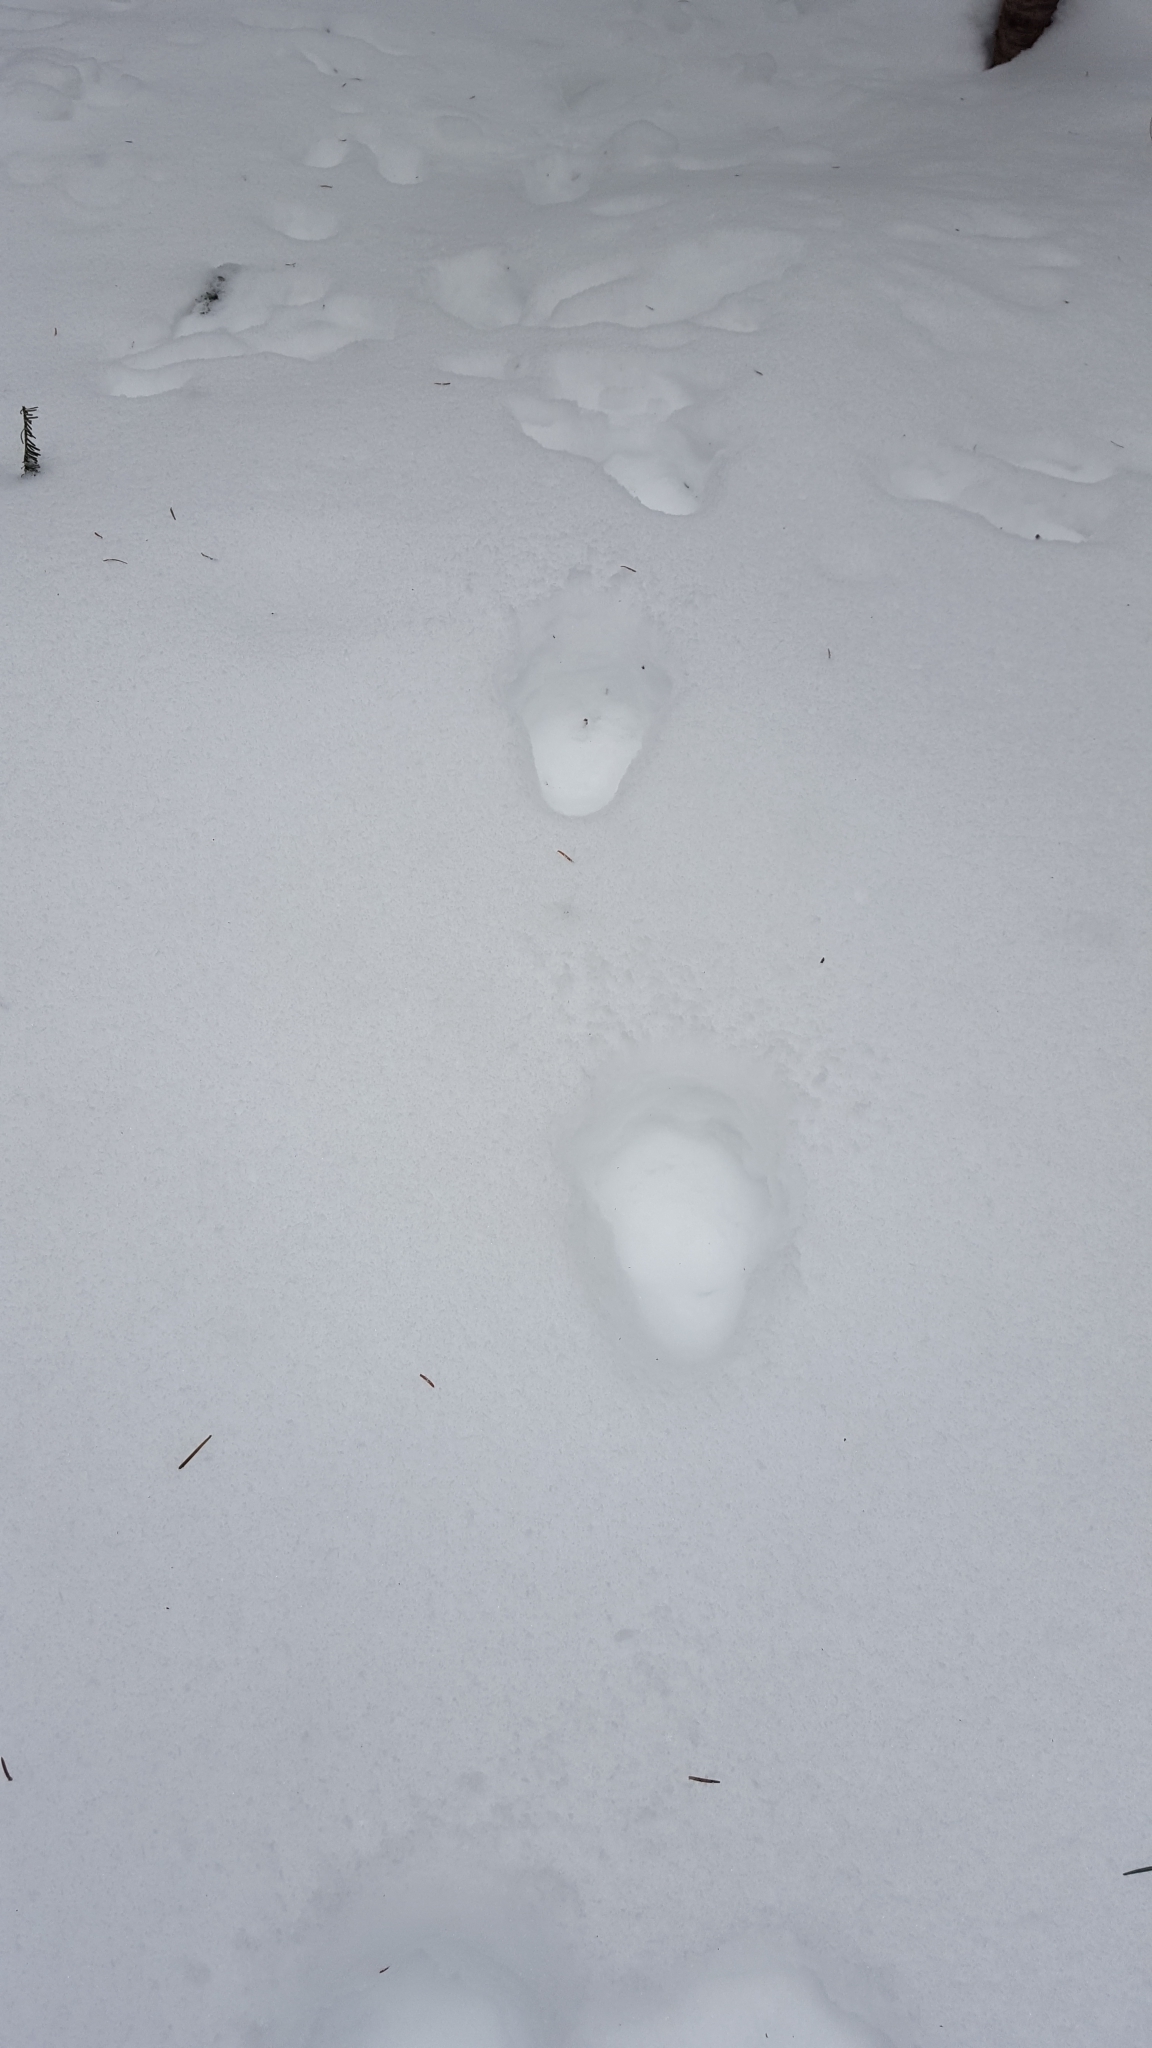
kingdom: Animalia
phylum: Chordata
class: Mammalia
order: Carnivora
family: Felidae
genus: Lynx
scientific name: Lynx canadensis
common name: Canadian lynx
